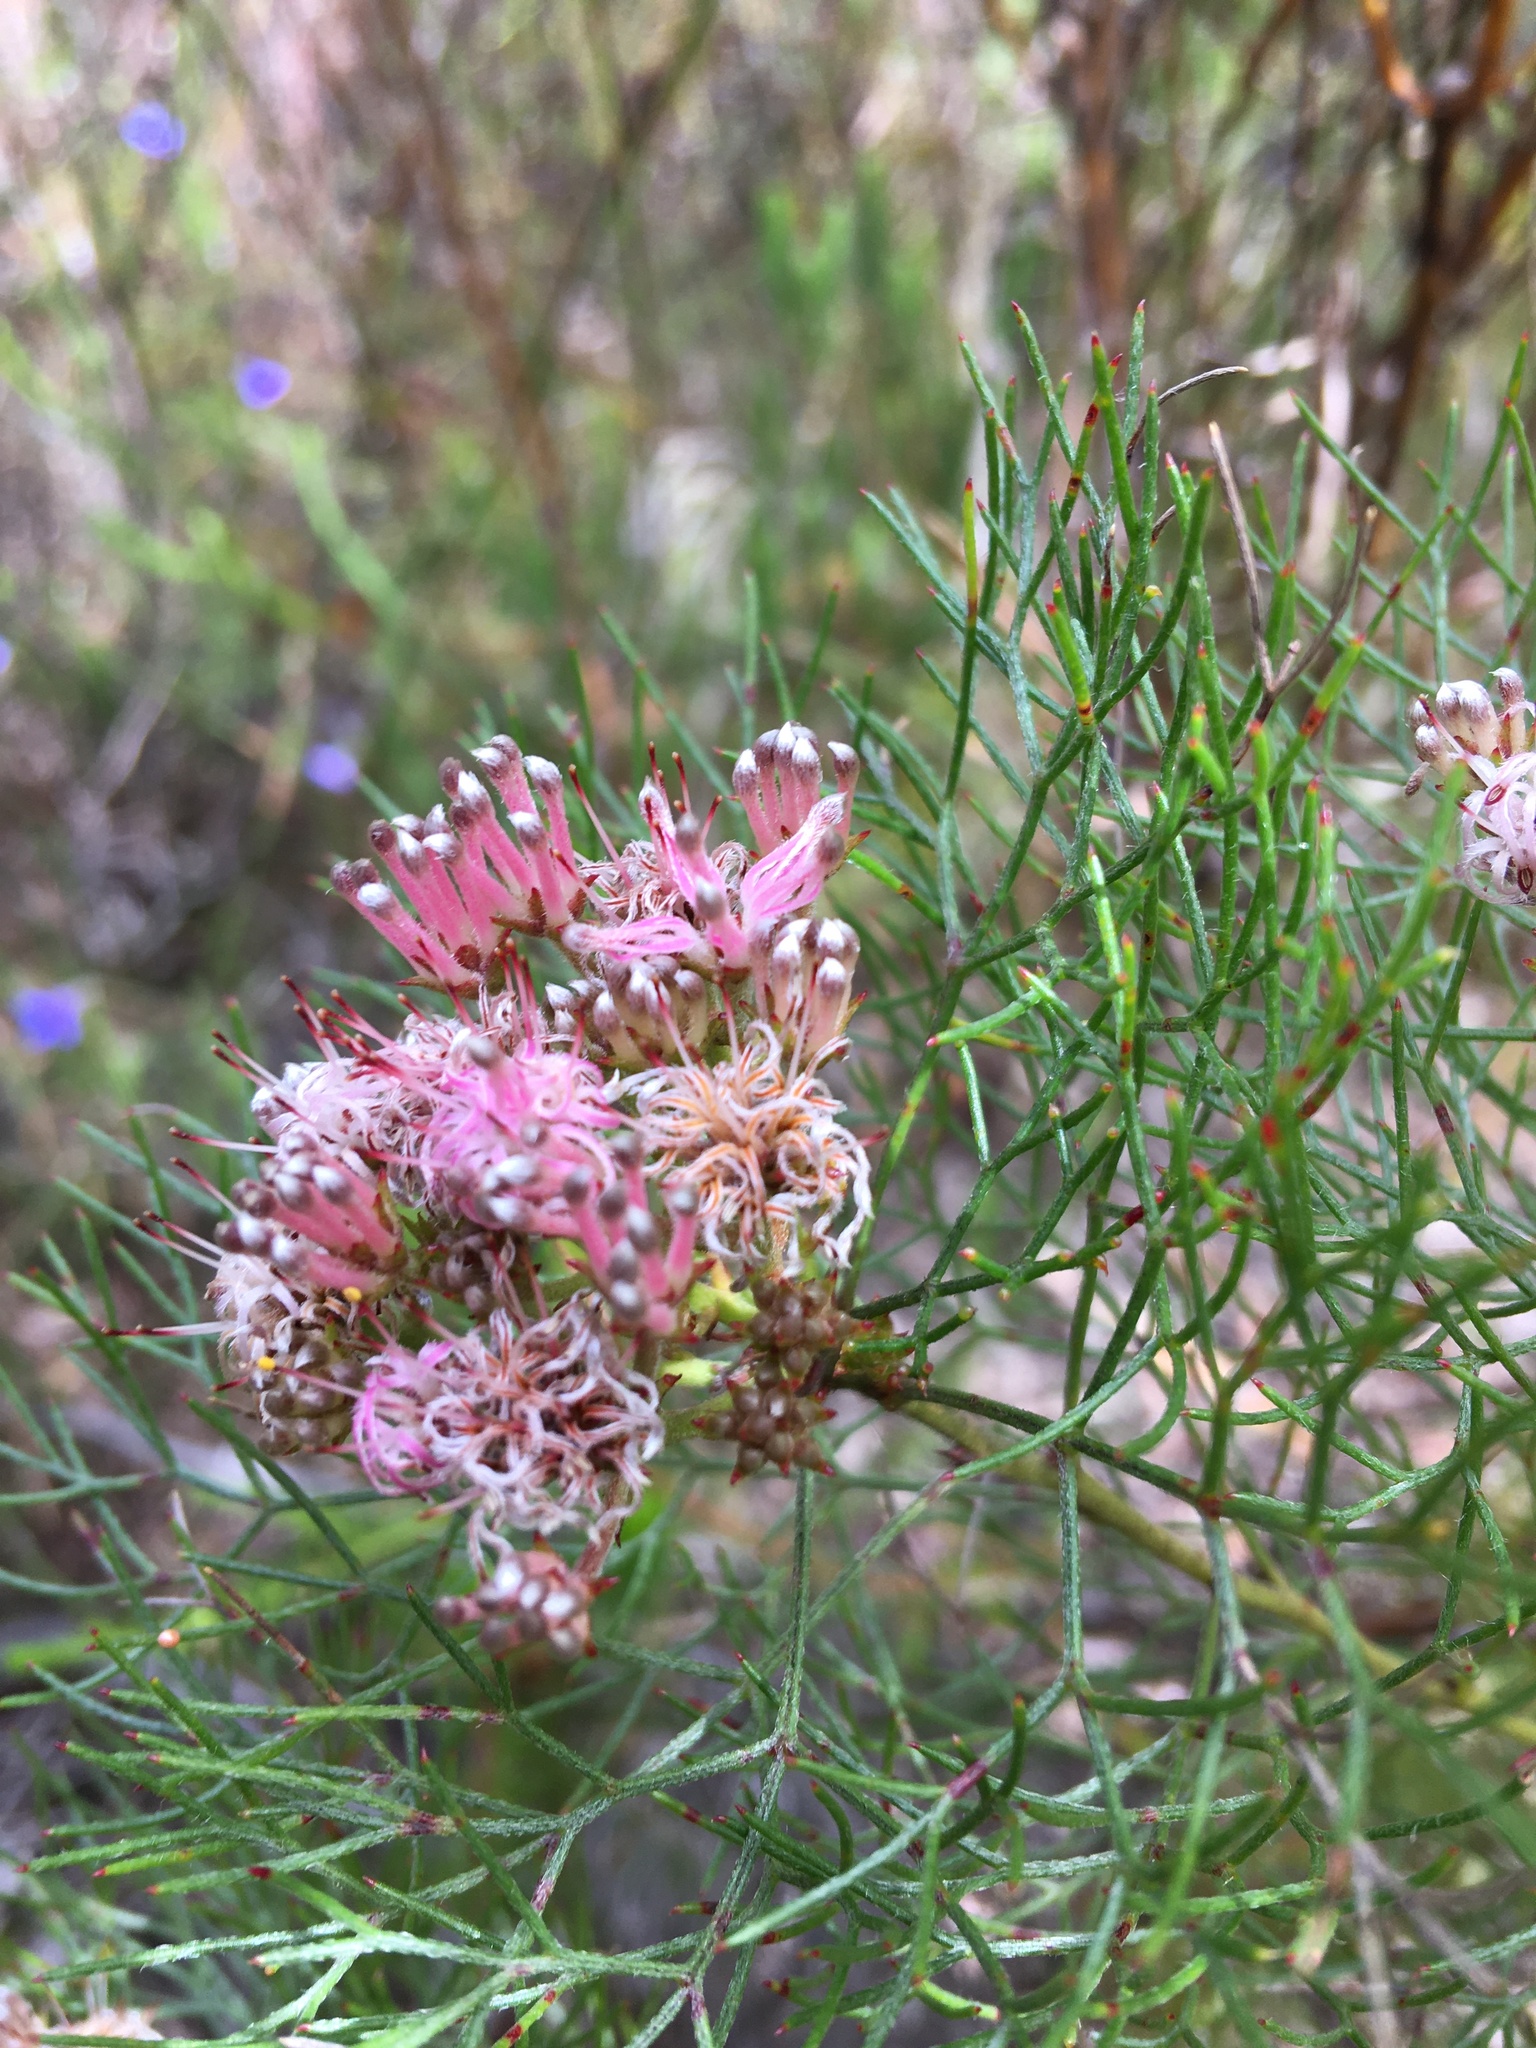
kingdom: Plantae
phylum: Tracheophyta
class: Magnoliopsida
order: Proteales
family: Proteaceae
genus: Serruria
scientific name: Serruria fasciflora
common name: Common pin spiderhead
